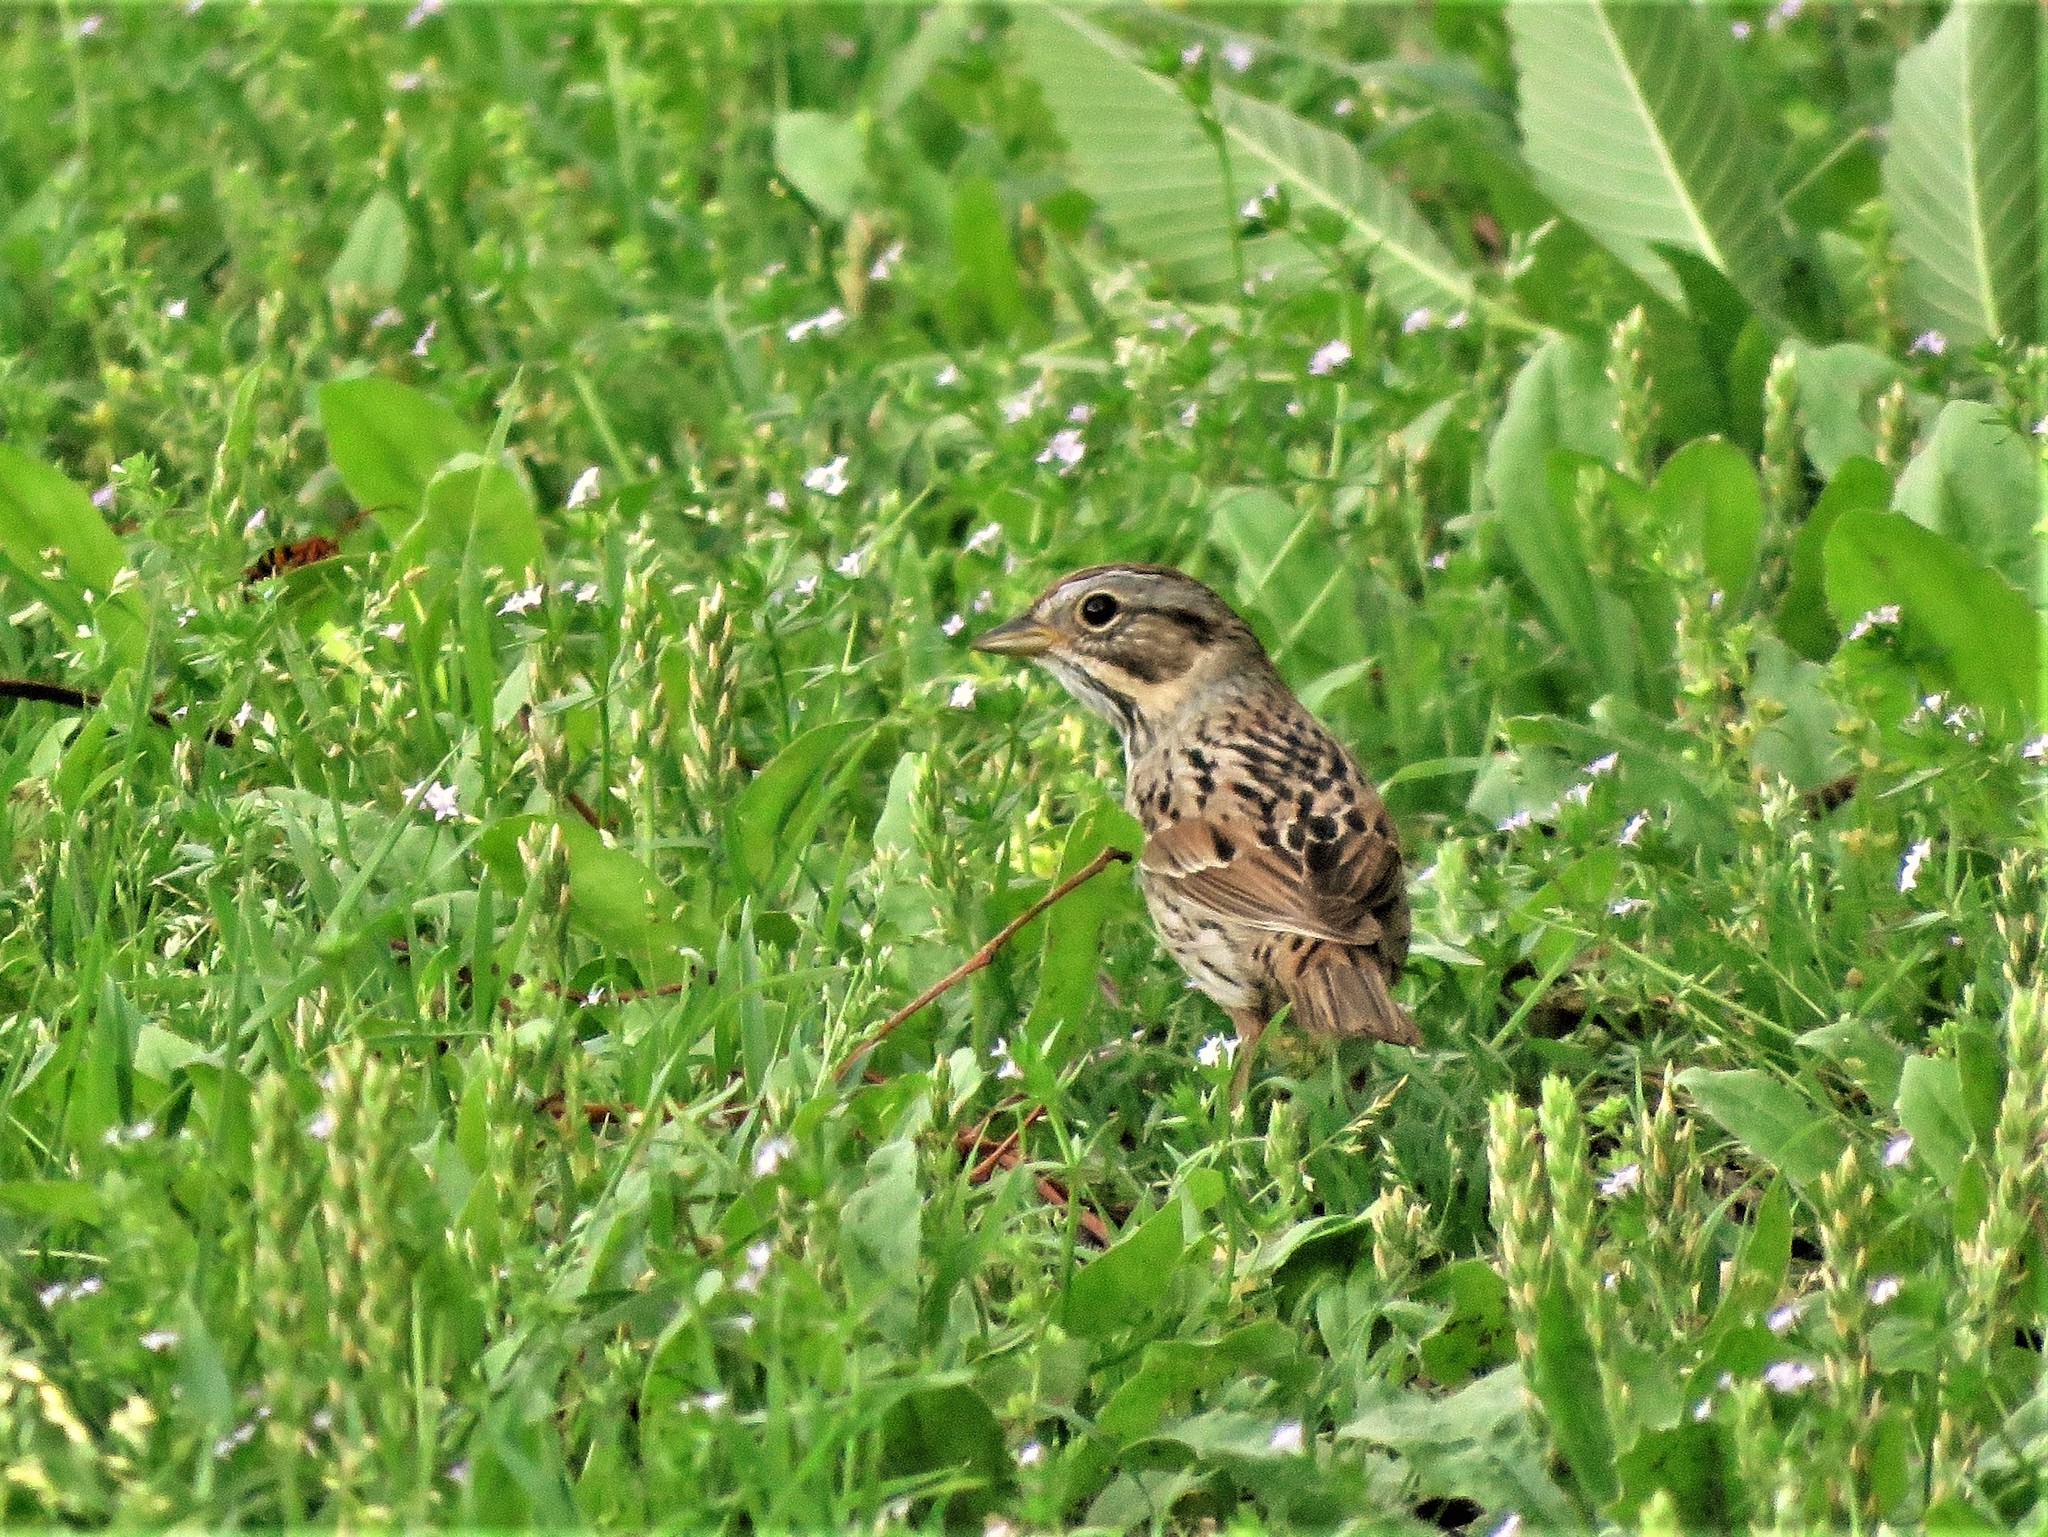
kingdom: Animalia
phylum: Chordata
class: Aves
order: Passeriformes
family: Passerellidae
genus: Melospiza
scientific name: Melospiza lincolnii
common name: Lincoln's sparrow
